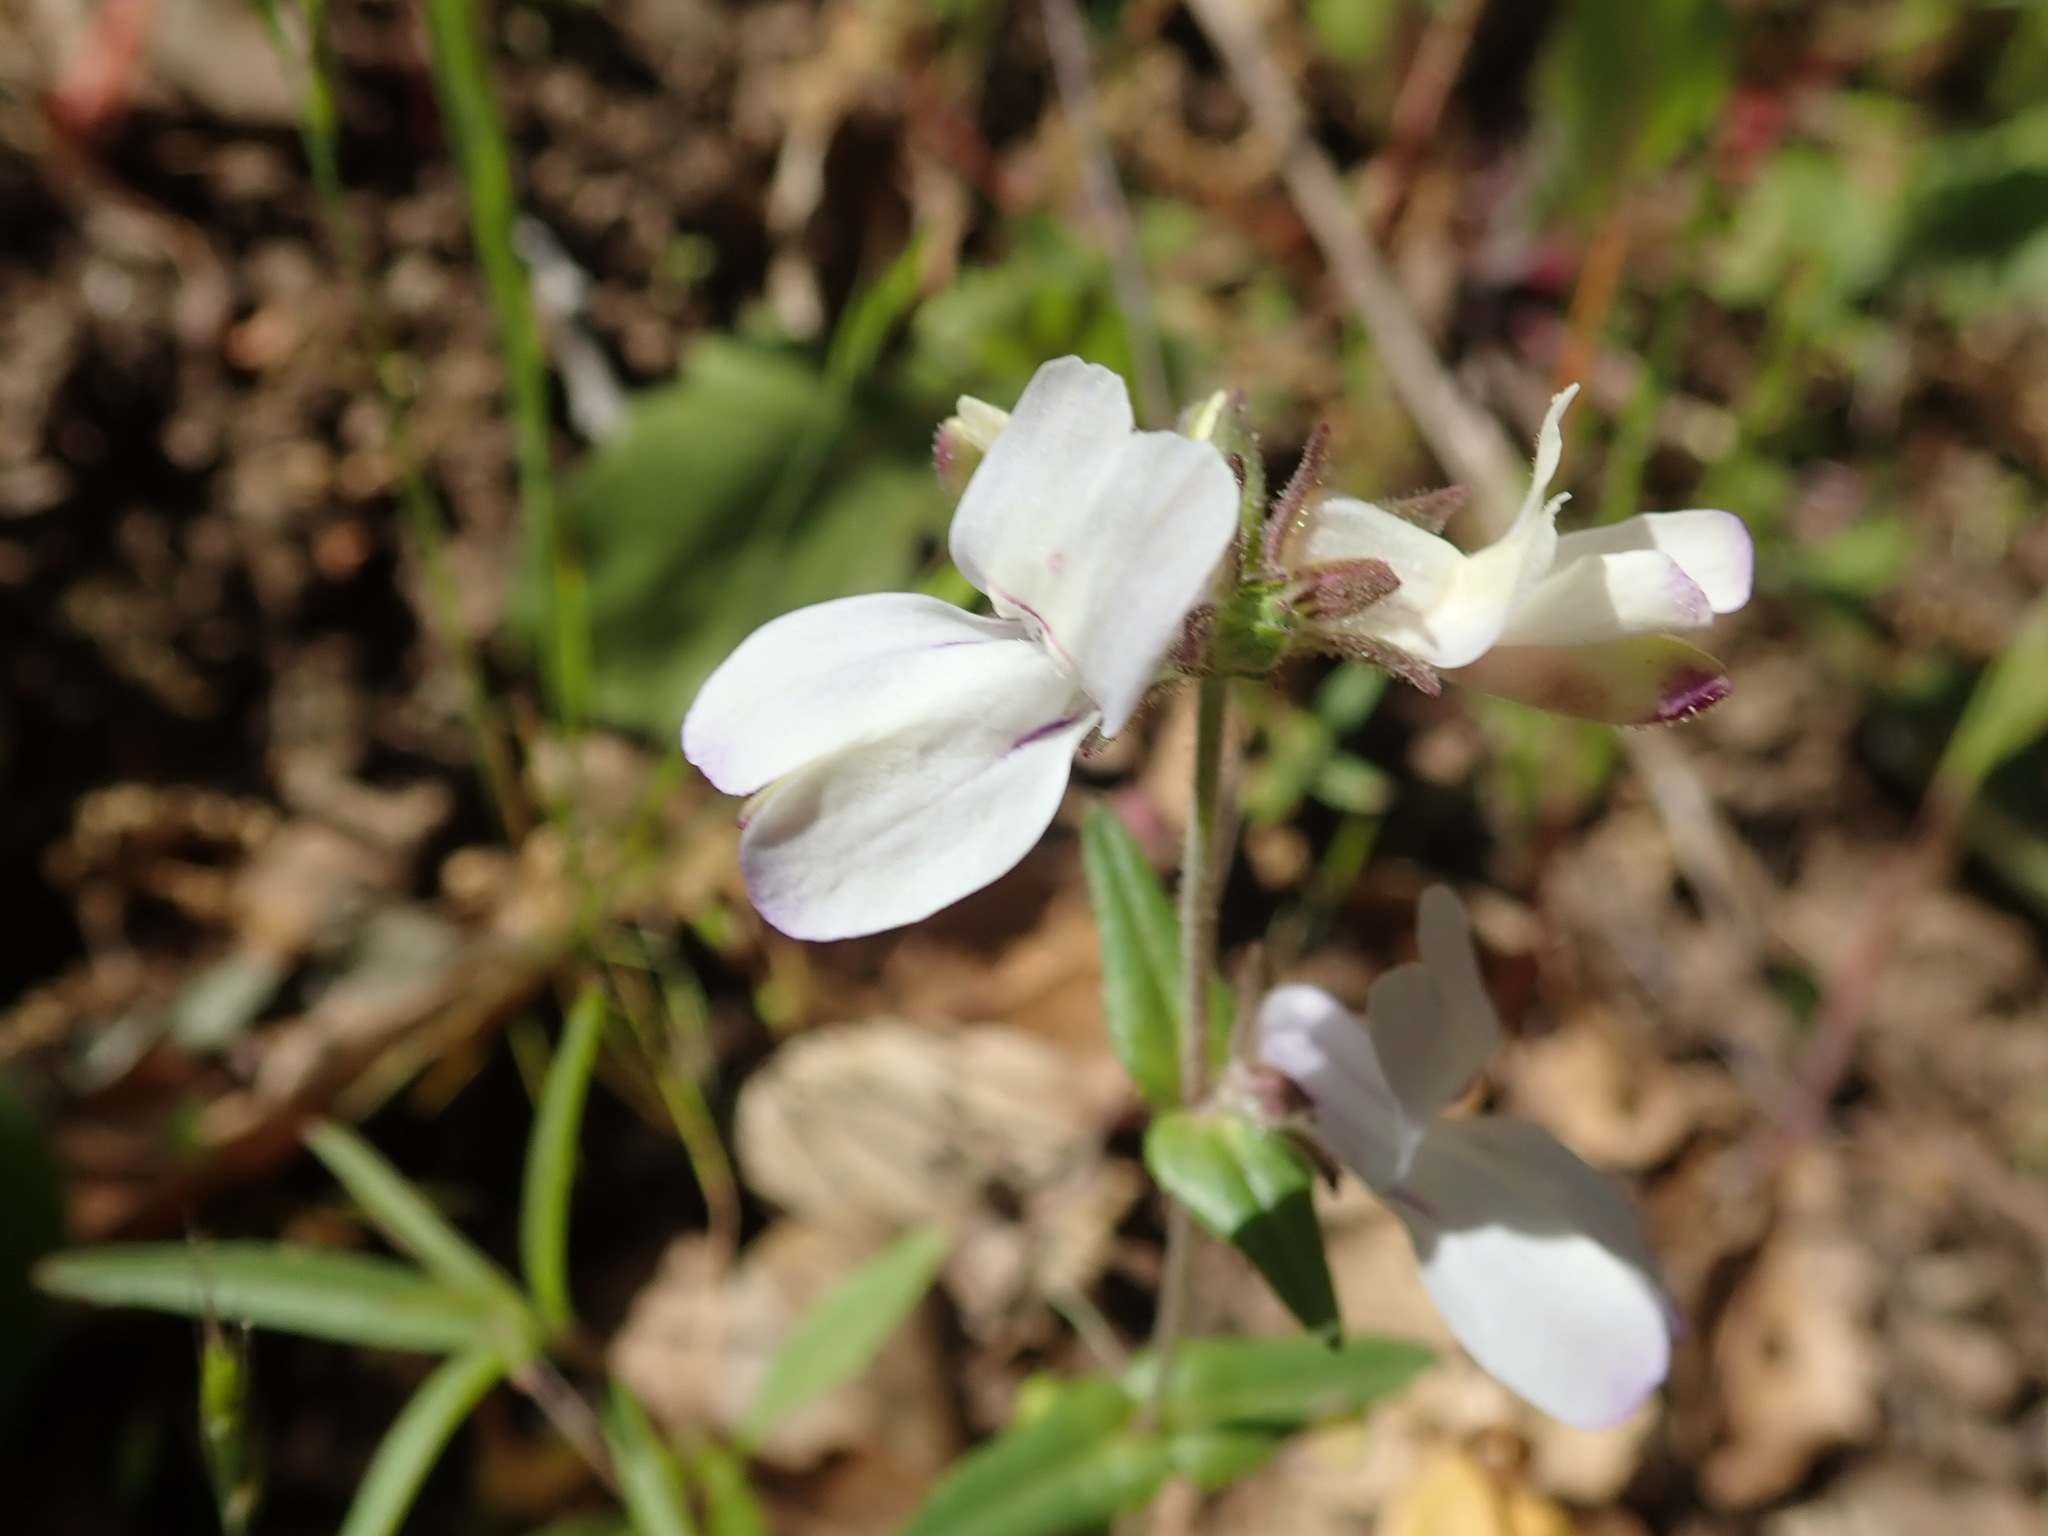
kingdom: Plantae
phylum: Tracheophyta
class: Magnoliopsida
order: Lamiales
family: Plantaginaceae
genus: Collinsia
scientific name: Collinsia heterophylla
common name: Chinese-houses
